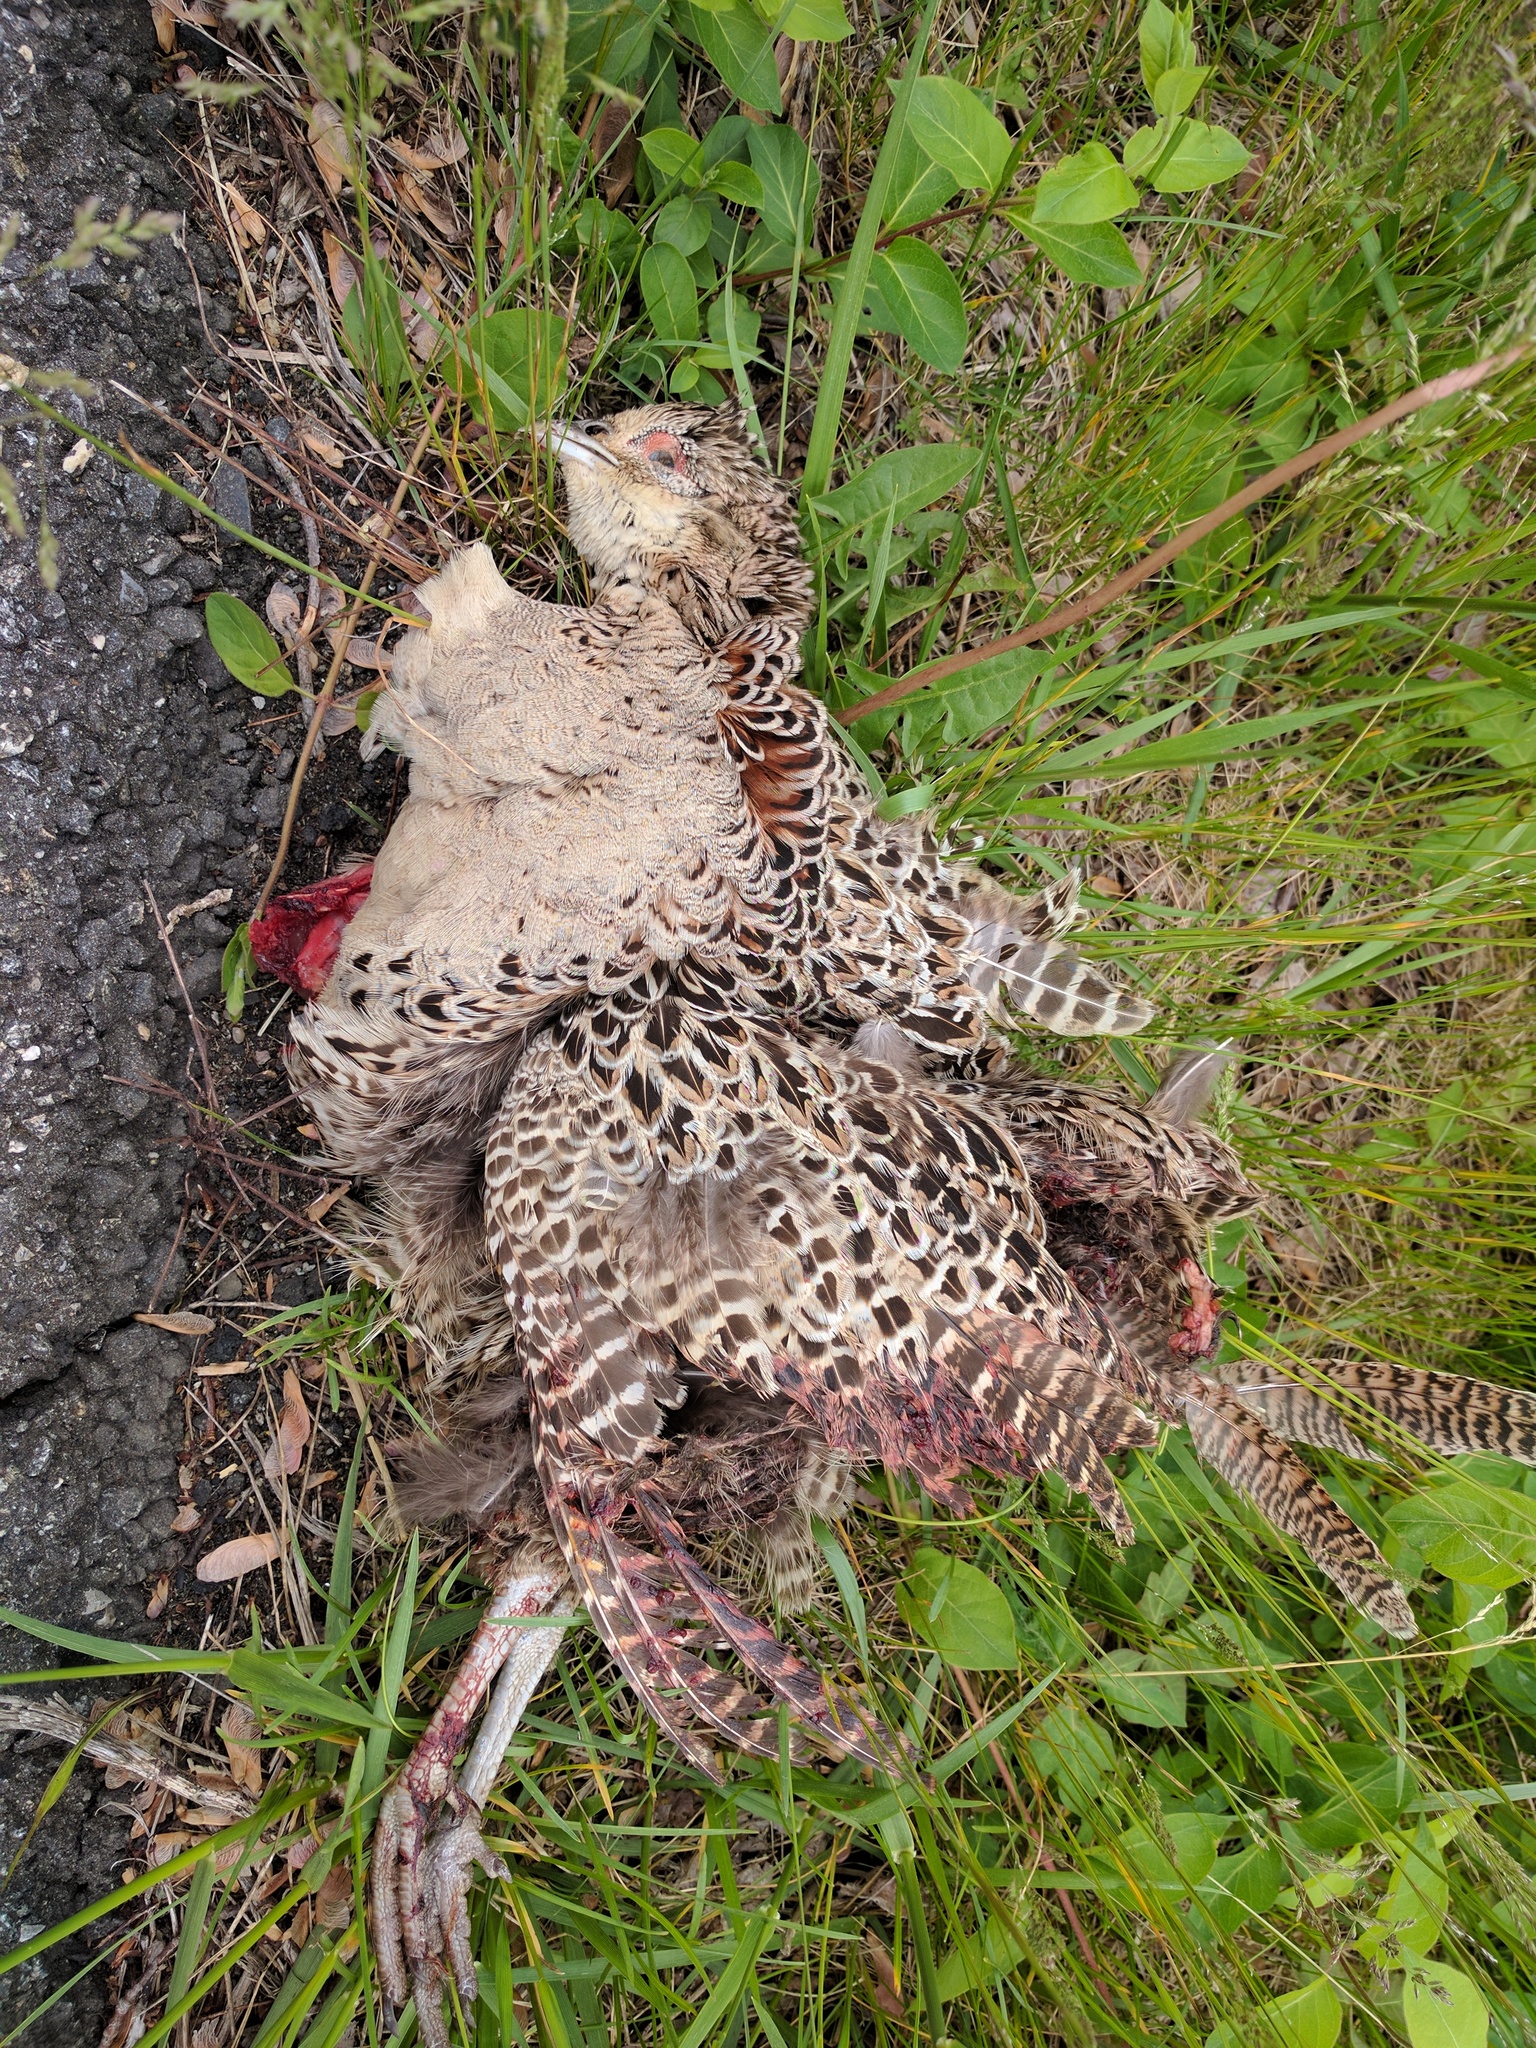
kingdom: Animalia
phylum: Chordata
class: Aves
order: Galliformes
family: Phasianidae
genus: Phasianus
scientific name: Phasianus colchicus
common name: Common pheasant
